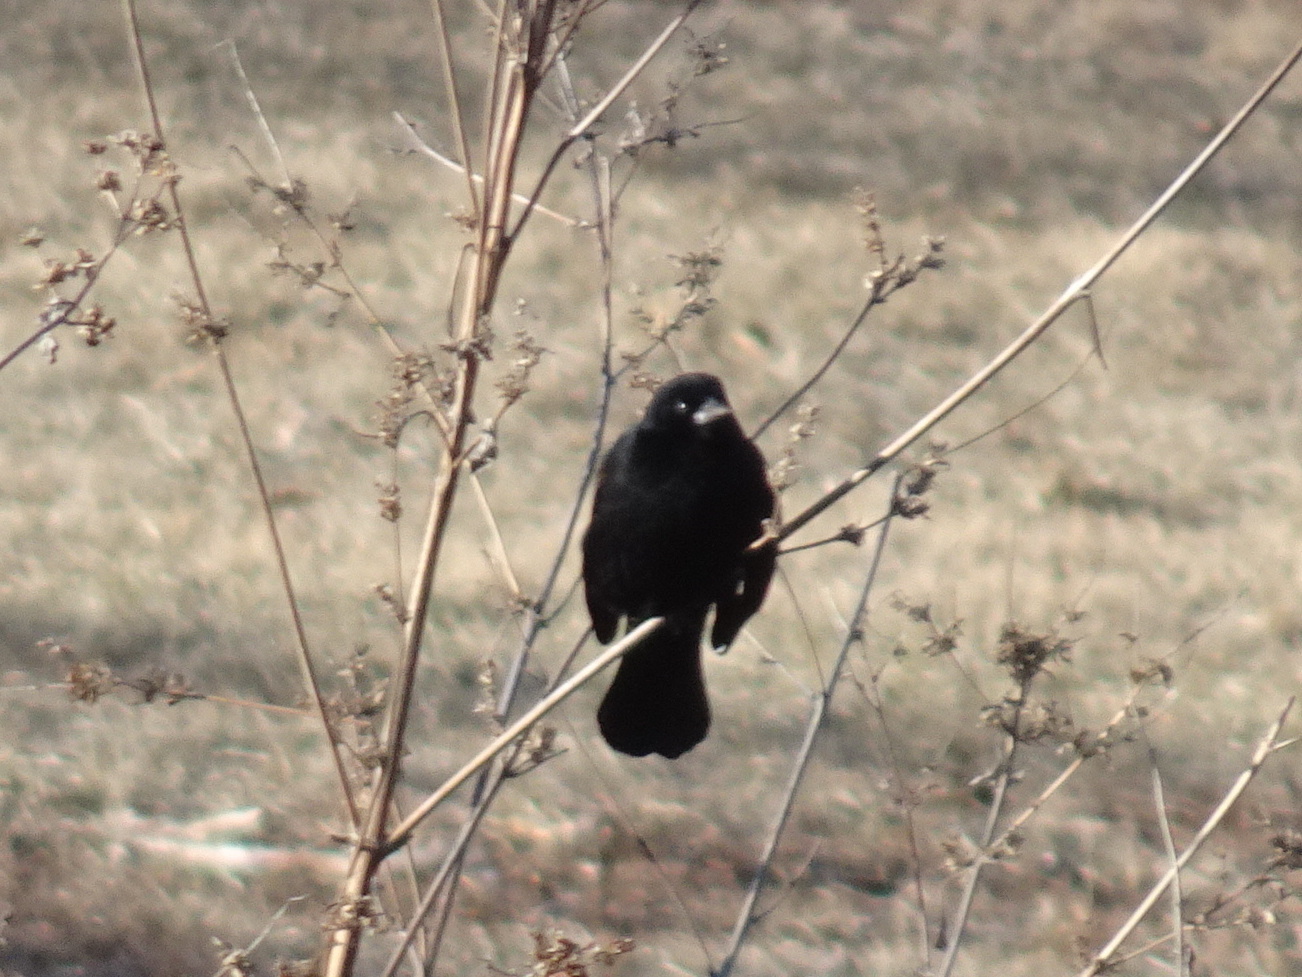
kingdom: Animalia
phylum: Chordata
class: Aves
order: Passeriformes
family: Icteridae
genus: Agelaius
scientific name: Agelaius phoeniceus
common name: Red-winged blackbird
